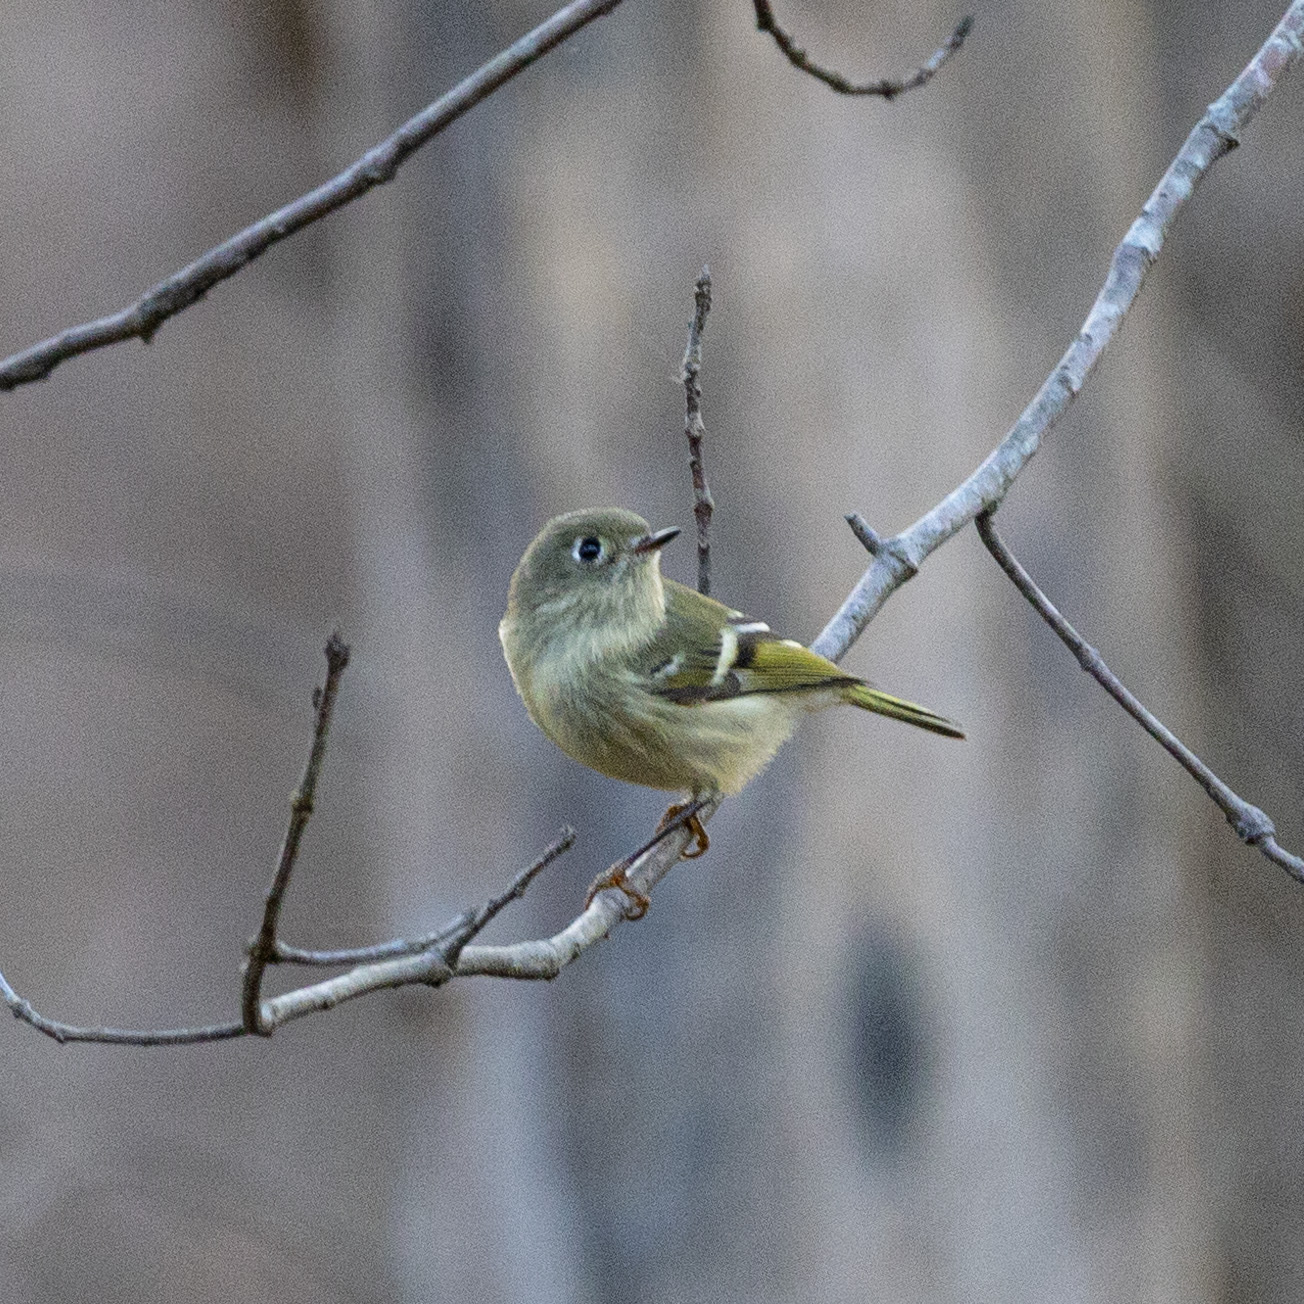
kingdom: Animalia
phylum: Chordata
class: Aves
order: Passeriformes
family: Regulidae
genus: Regulus
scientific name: Regulus calendula
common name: Ruby-crowned kinglet
